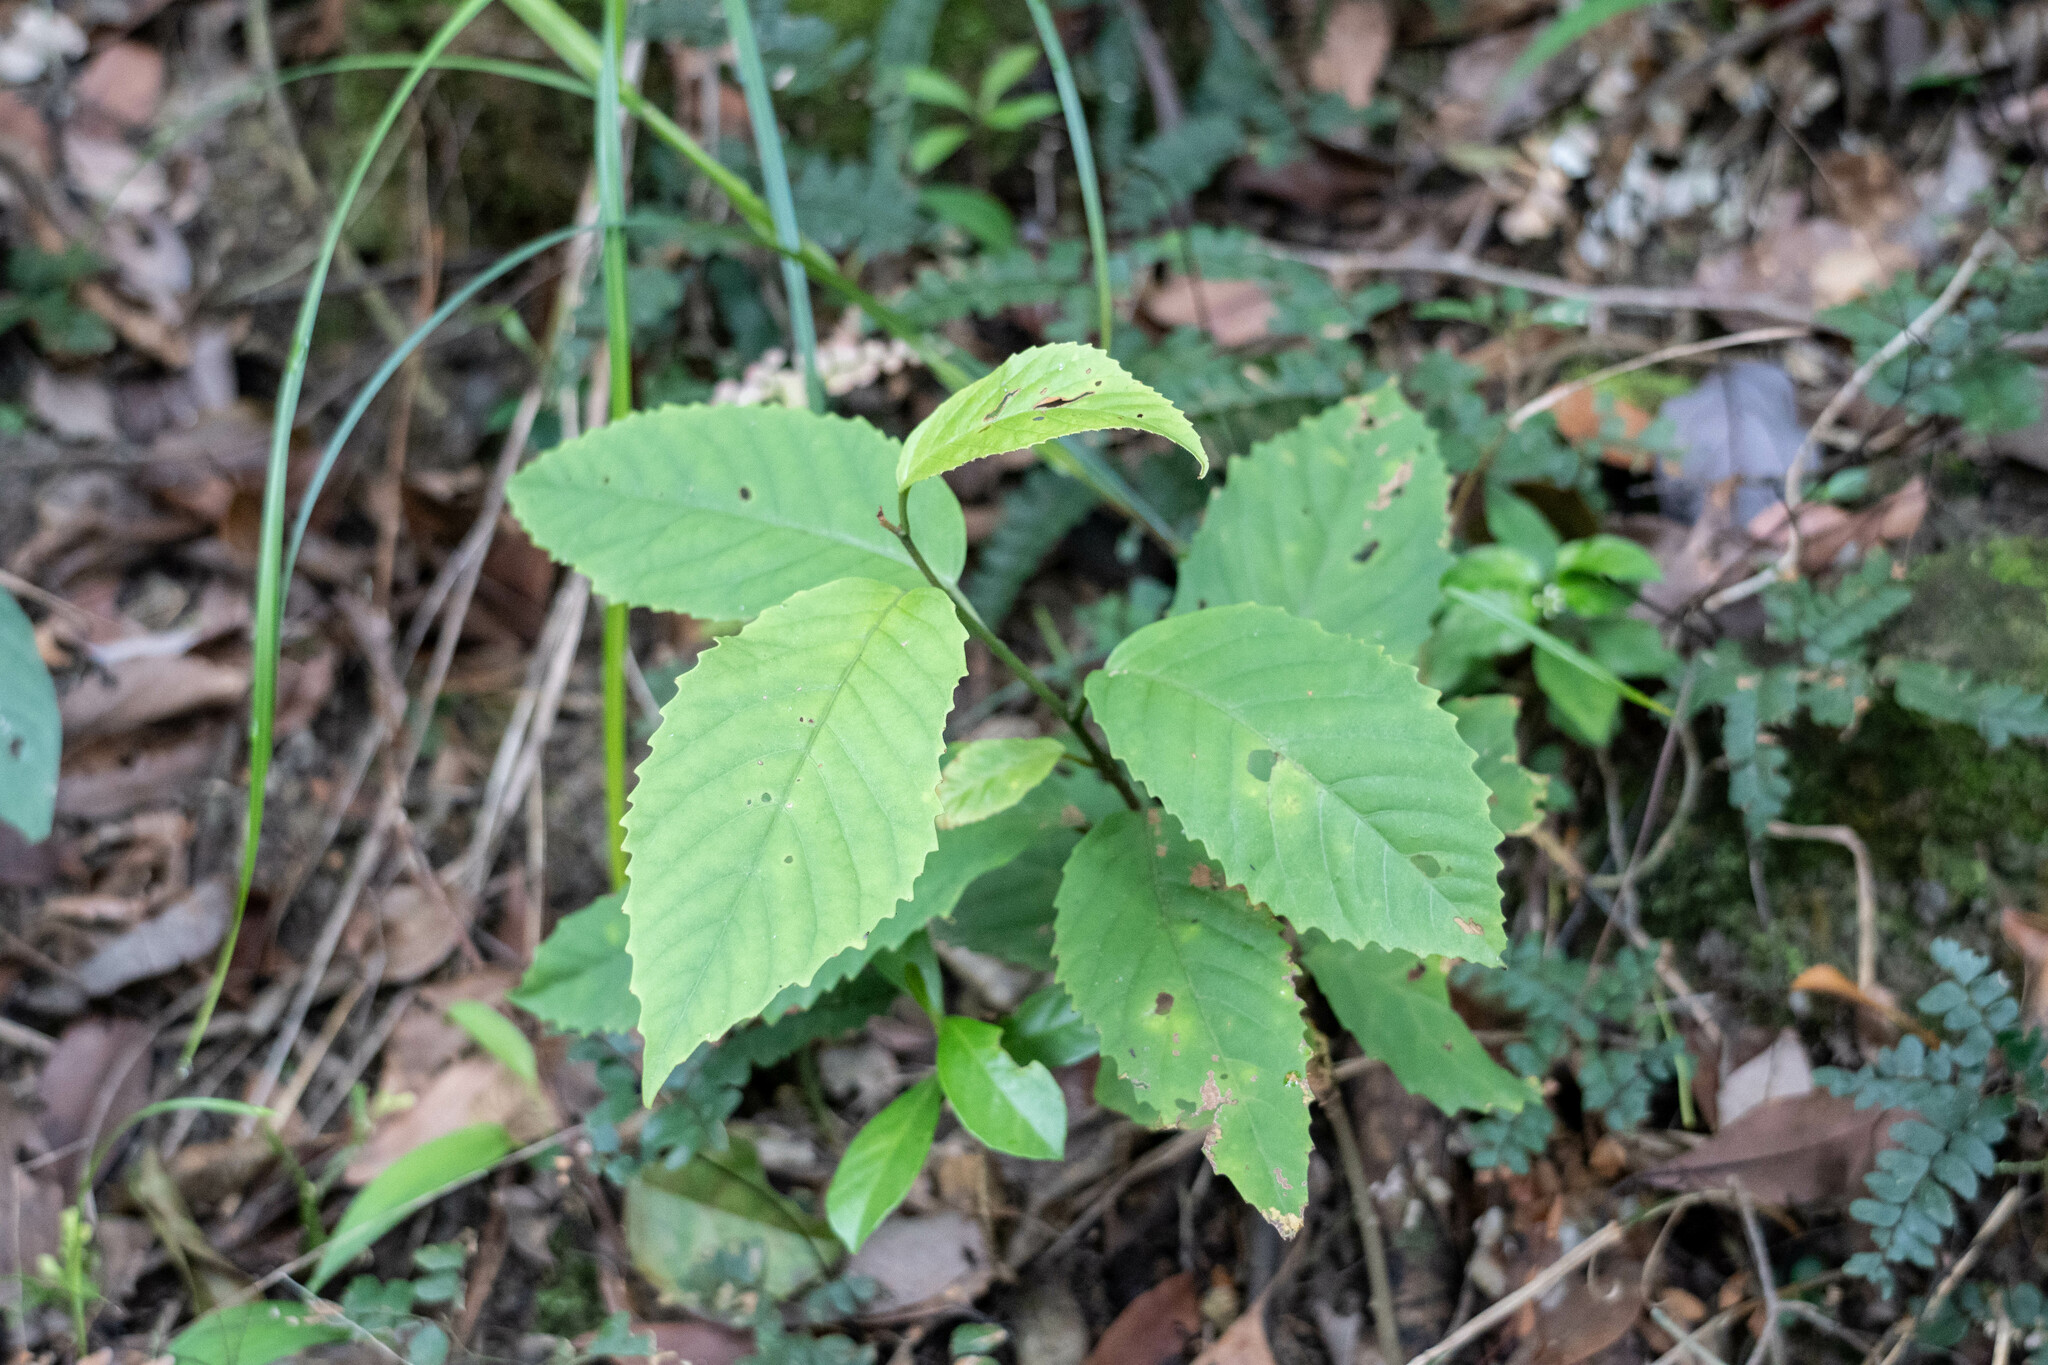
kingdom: Plantae
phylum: Tracheophyta
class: Magnoliopsida
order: Ericales
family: Primulaceae
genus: Maesa
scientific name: Maesa perlaria
